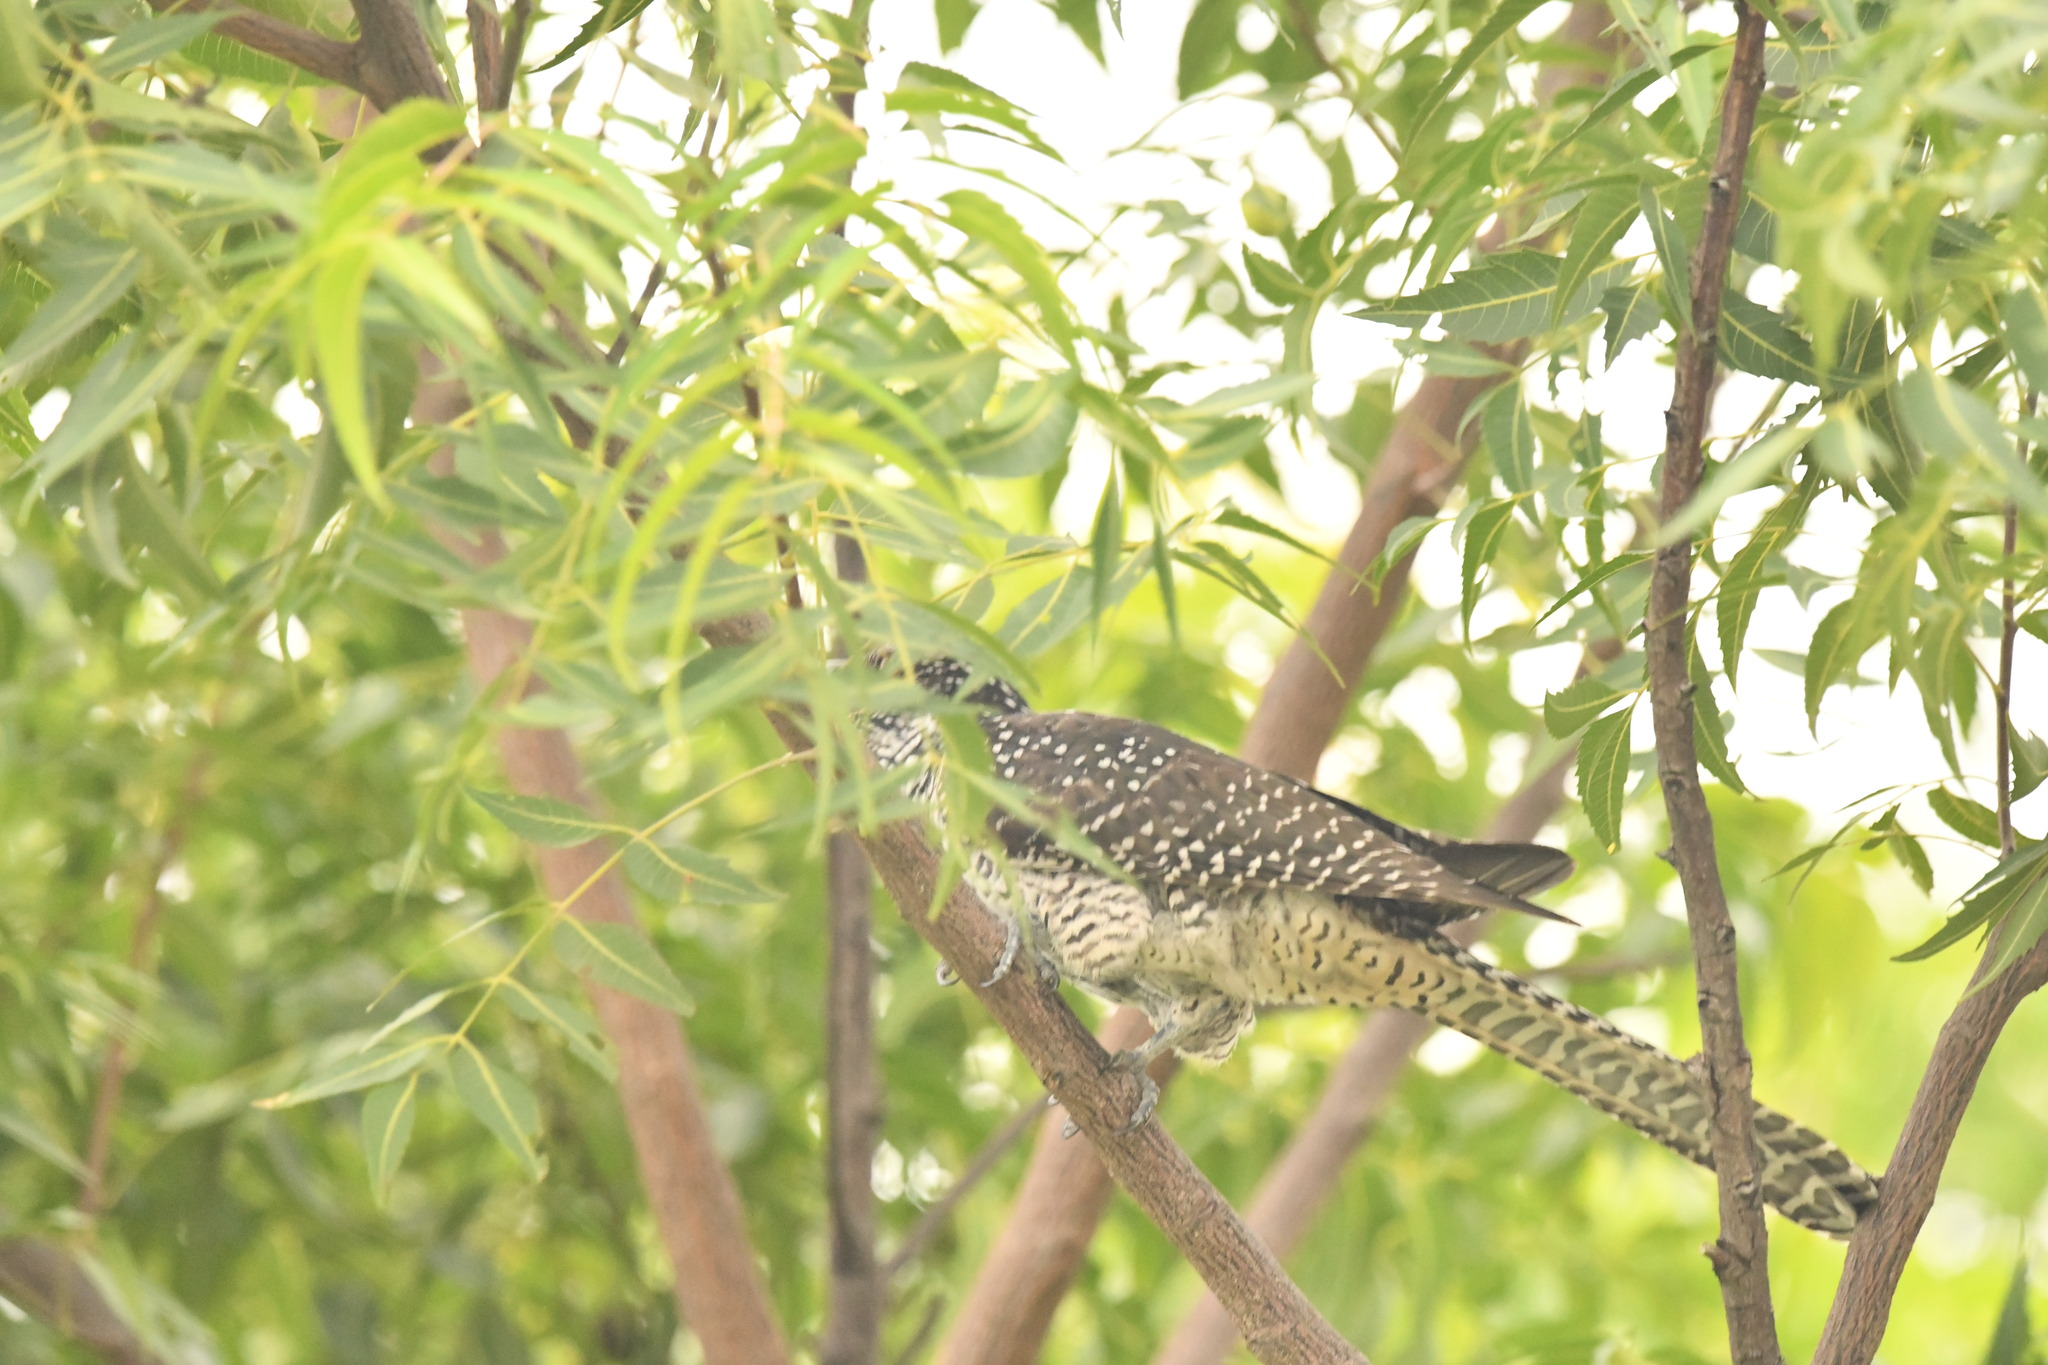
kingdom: Animalia
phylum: Chordata
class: Aves
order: Cuculiformes
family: Cuculidae
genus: Eudynamys
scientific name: Eudynamys scolopaceus
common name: Asian koel
